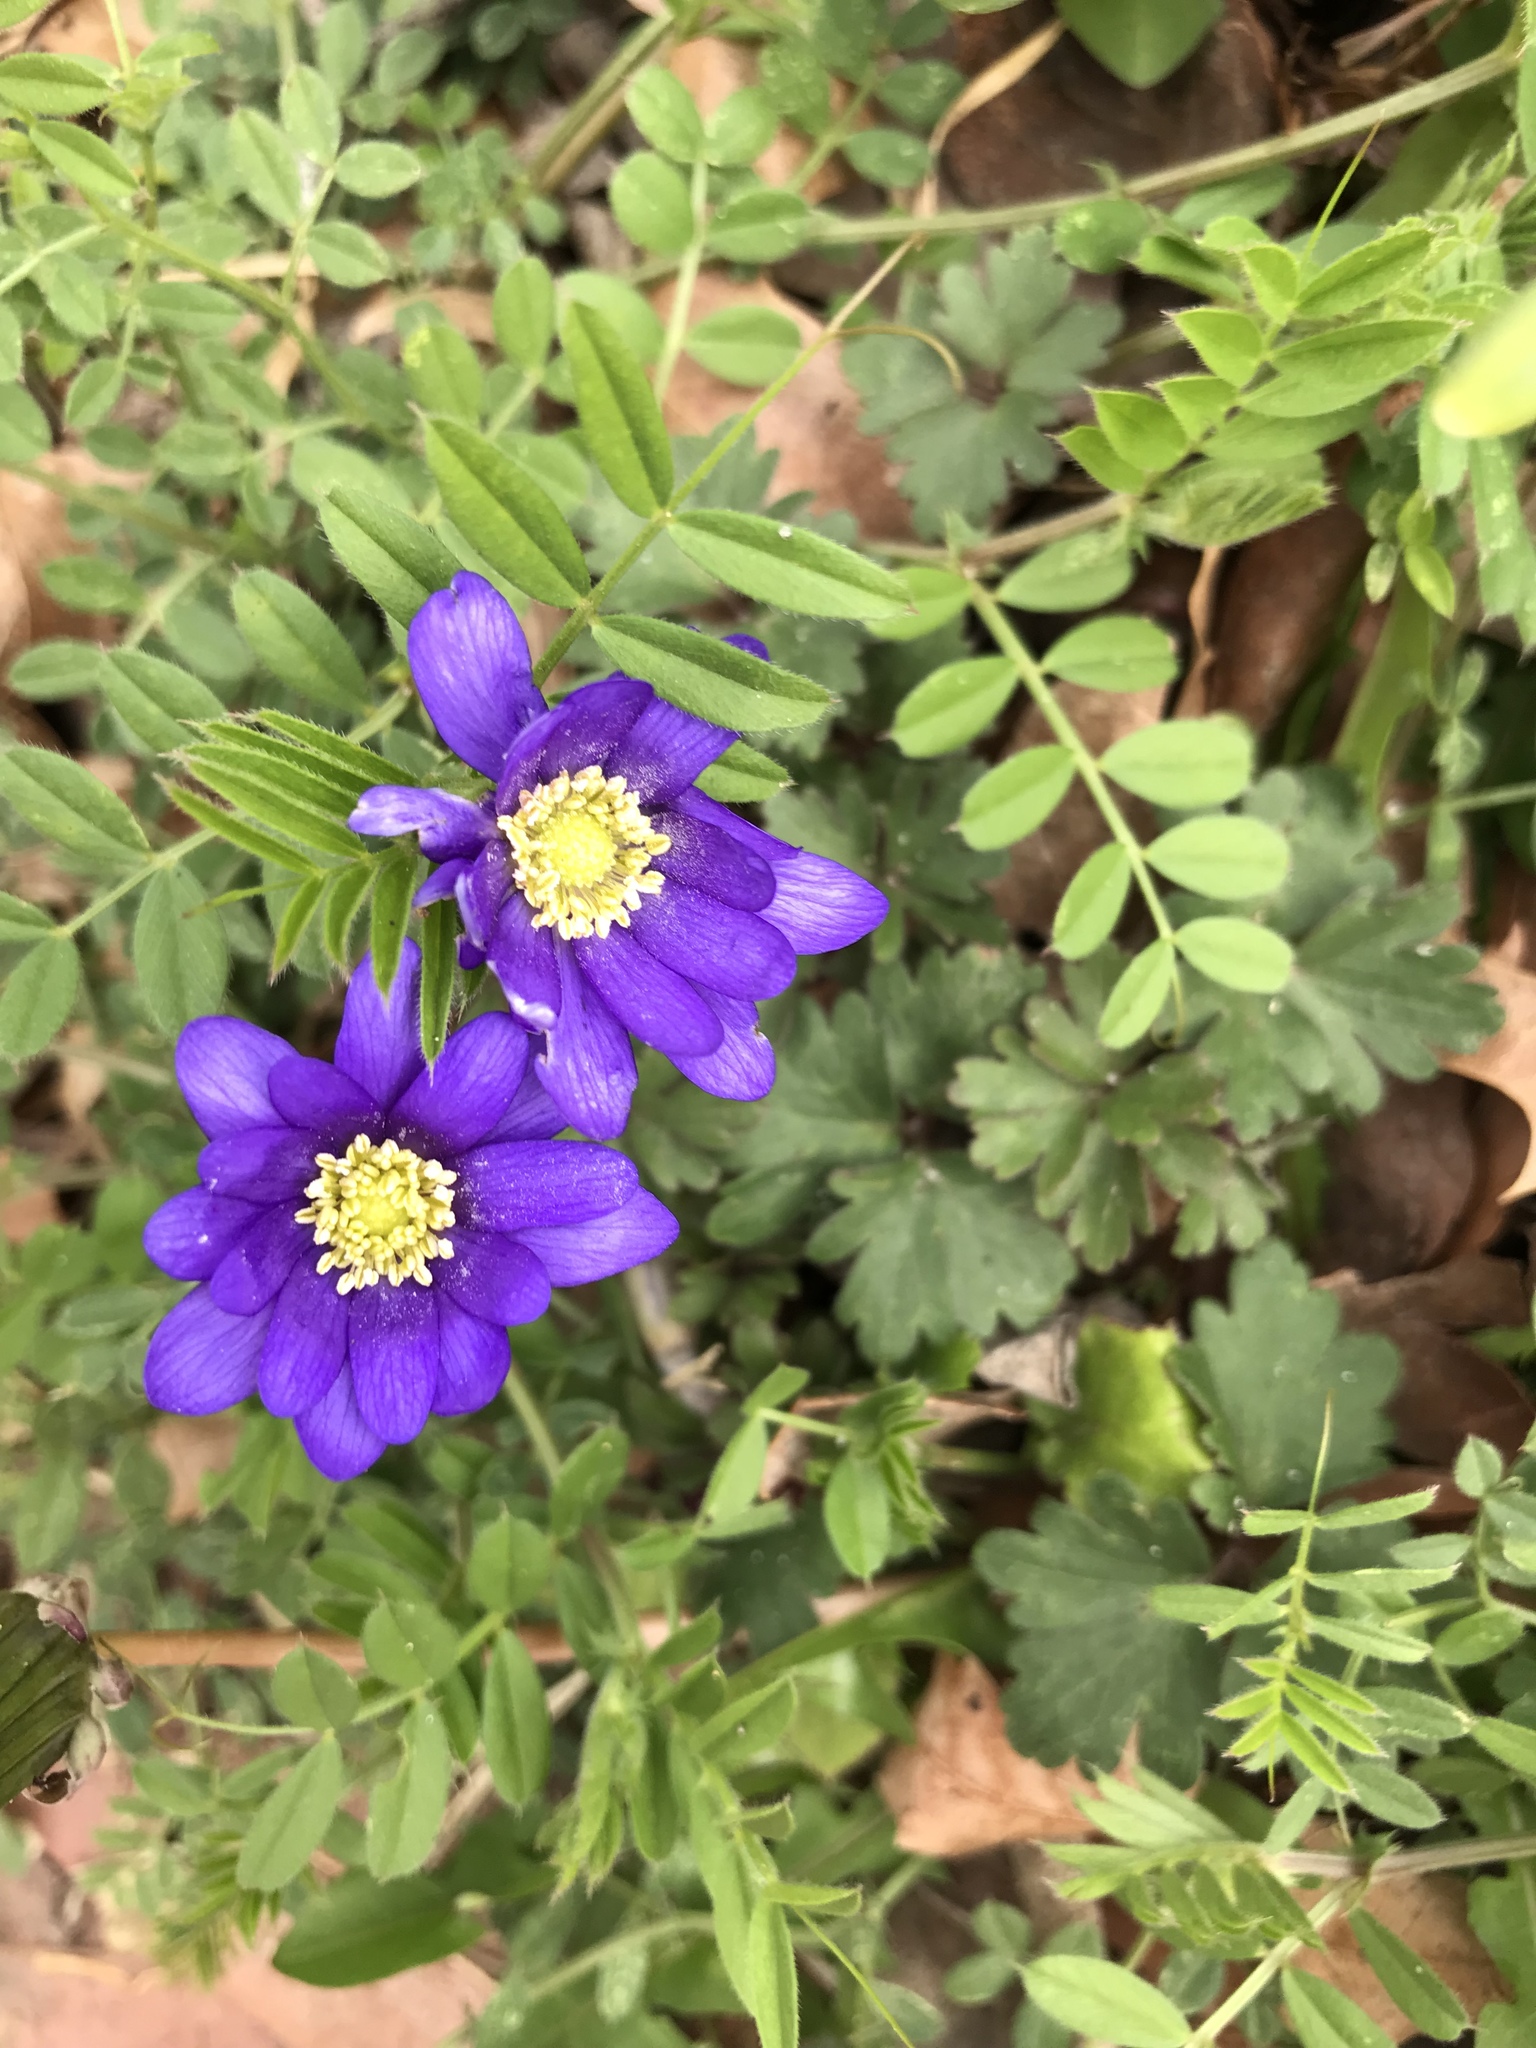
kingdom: Plantae
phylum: Tracheophyta
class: Magnoliopsida
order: Ranunculales
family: Ranunculaceae
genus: Anemone
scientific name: Anemone blanda
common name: Balkan anemone
